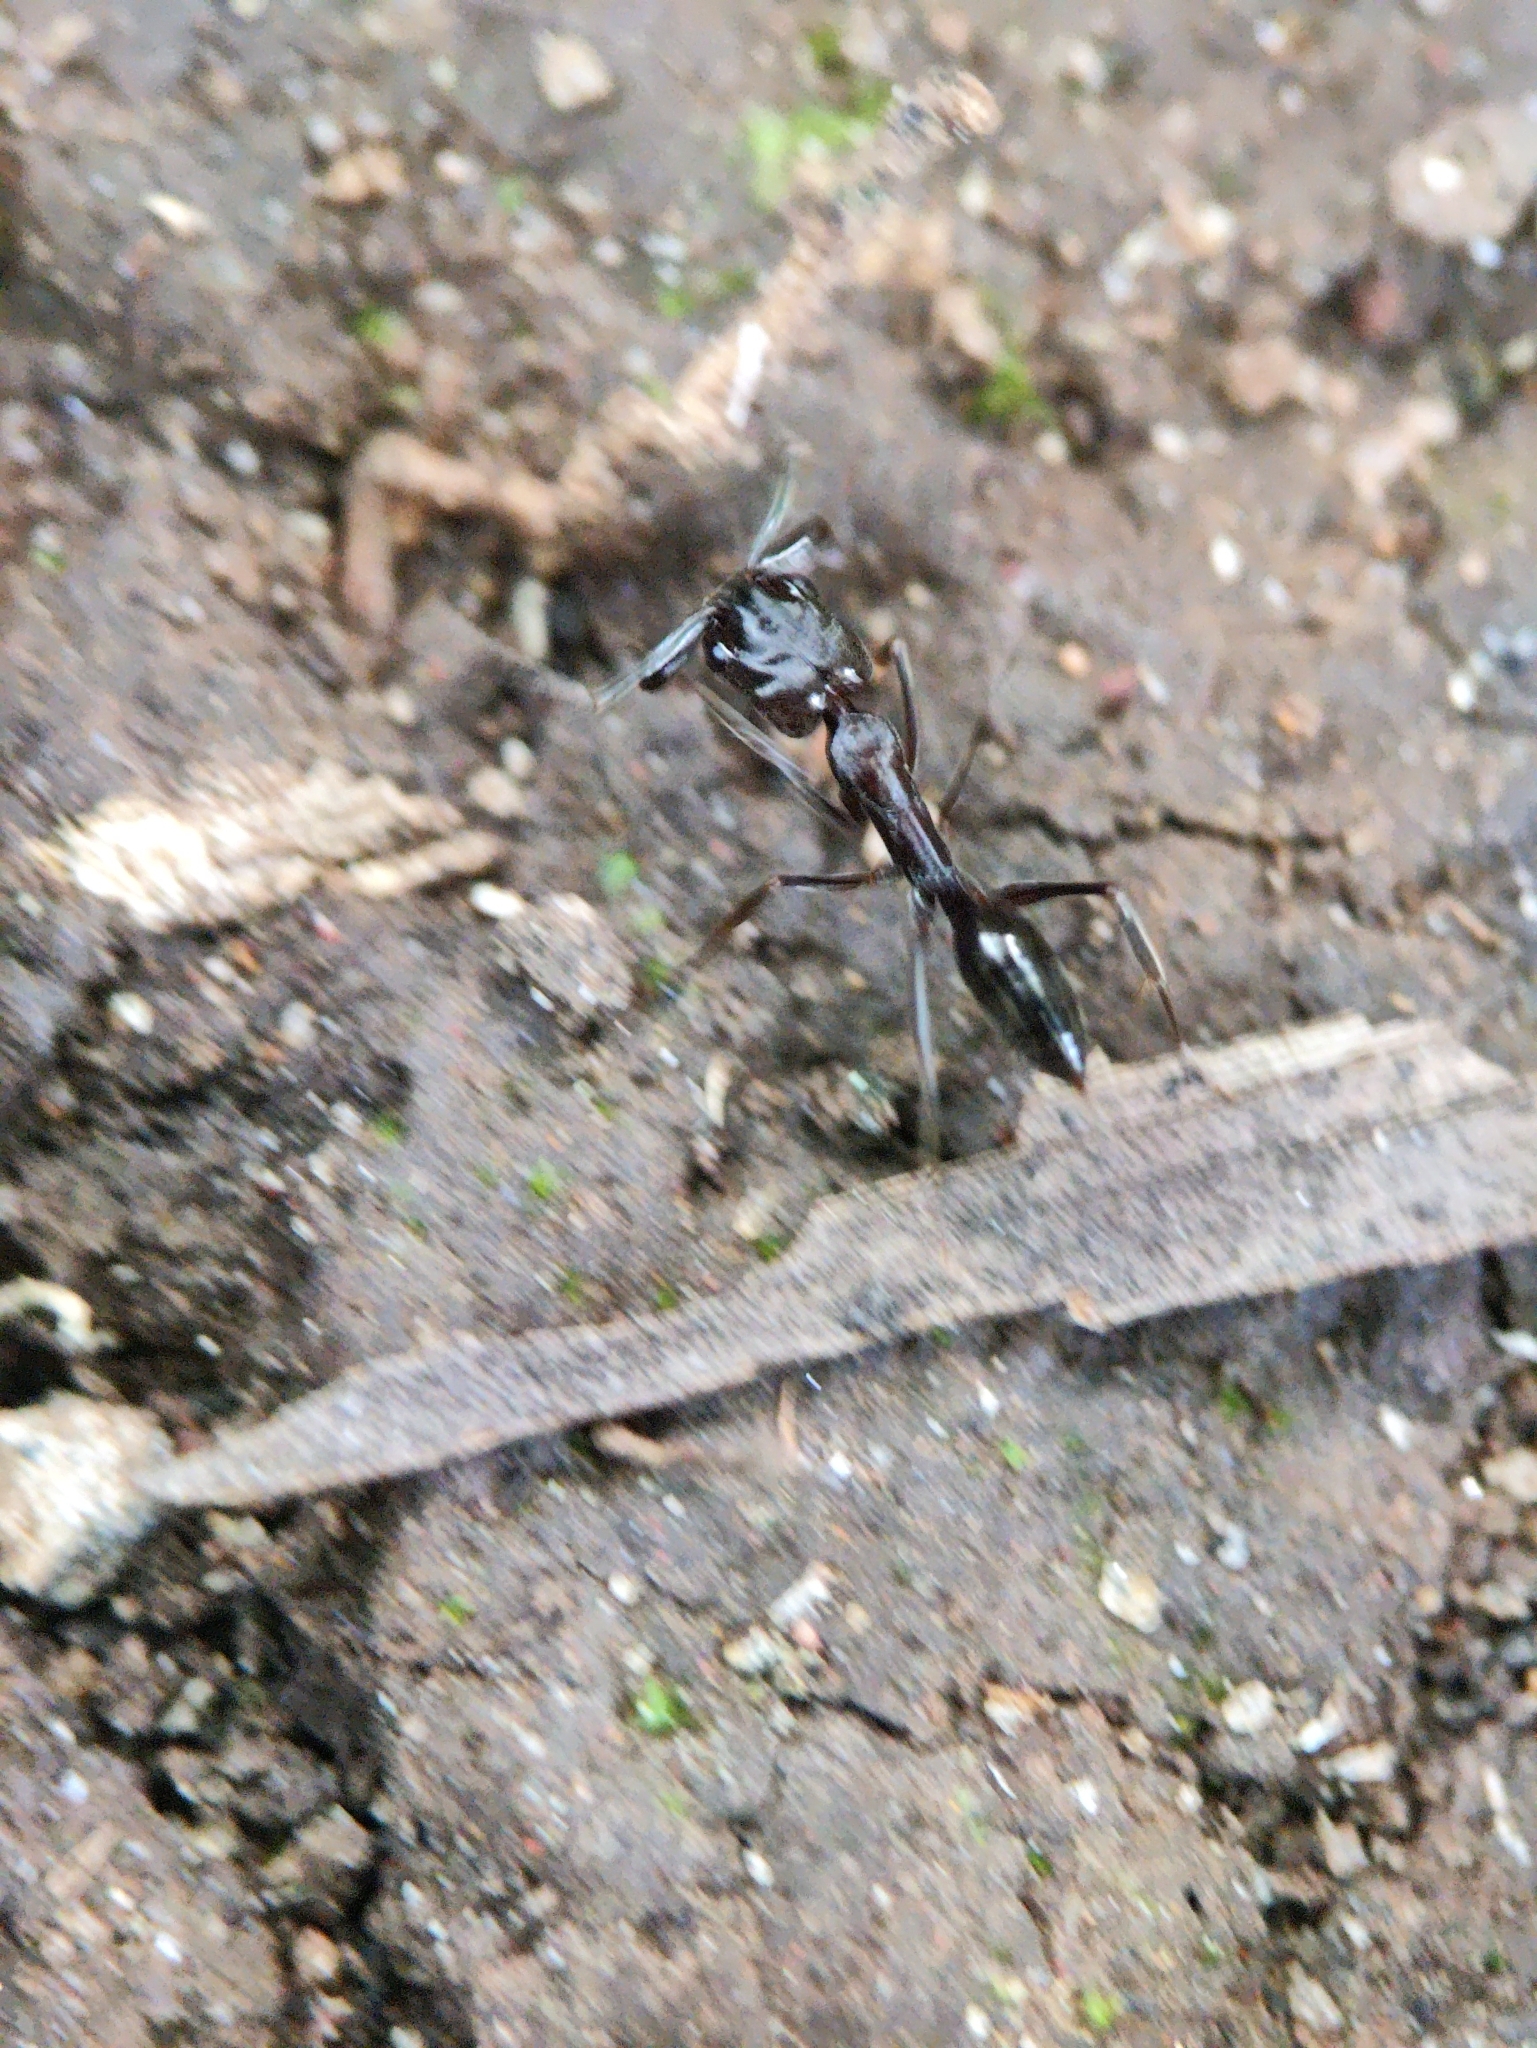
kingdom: Animalia
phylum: Arthropoda
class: Insecta
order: Hymenoptera
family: Formicidae
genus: Odontomachus
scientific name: Odontomachus simillimus
